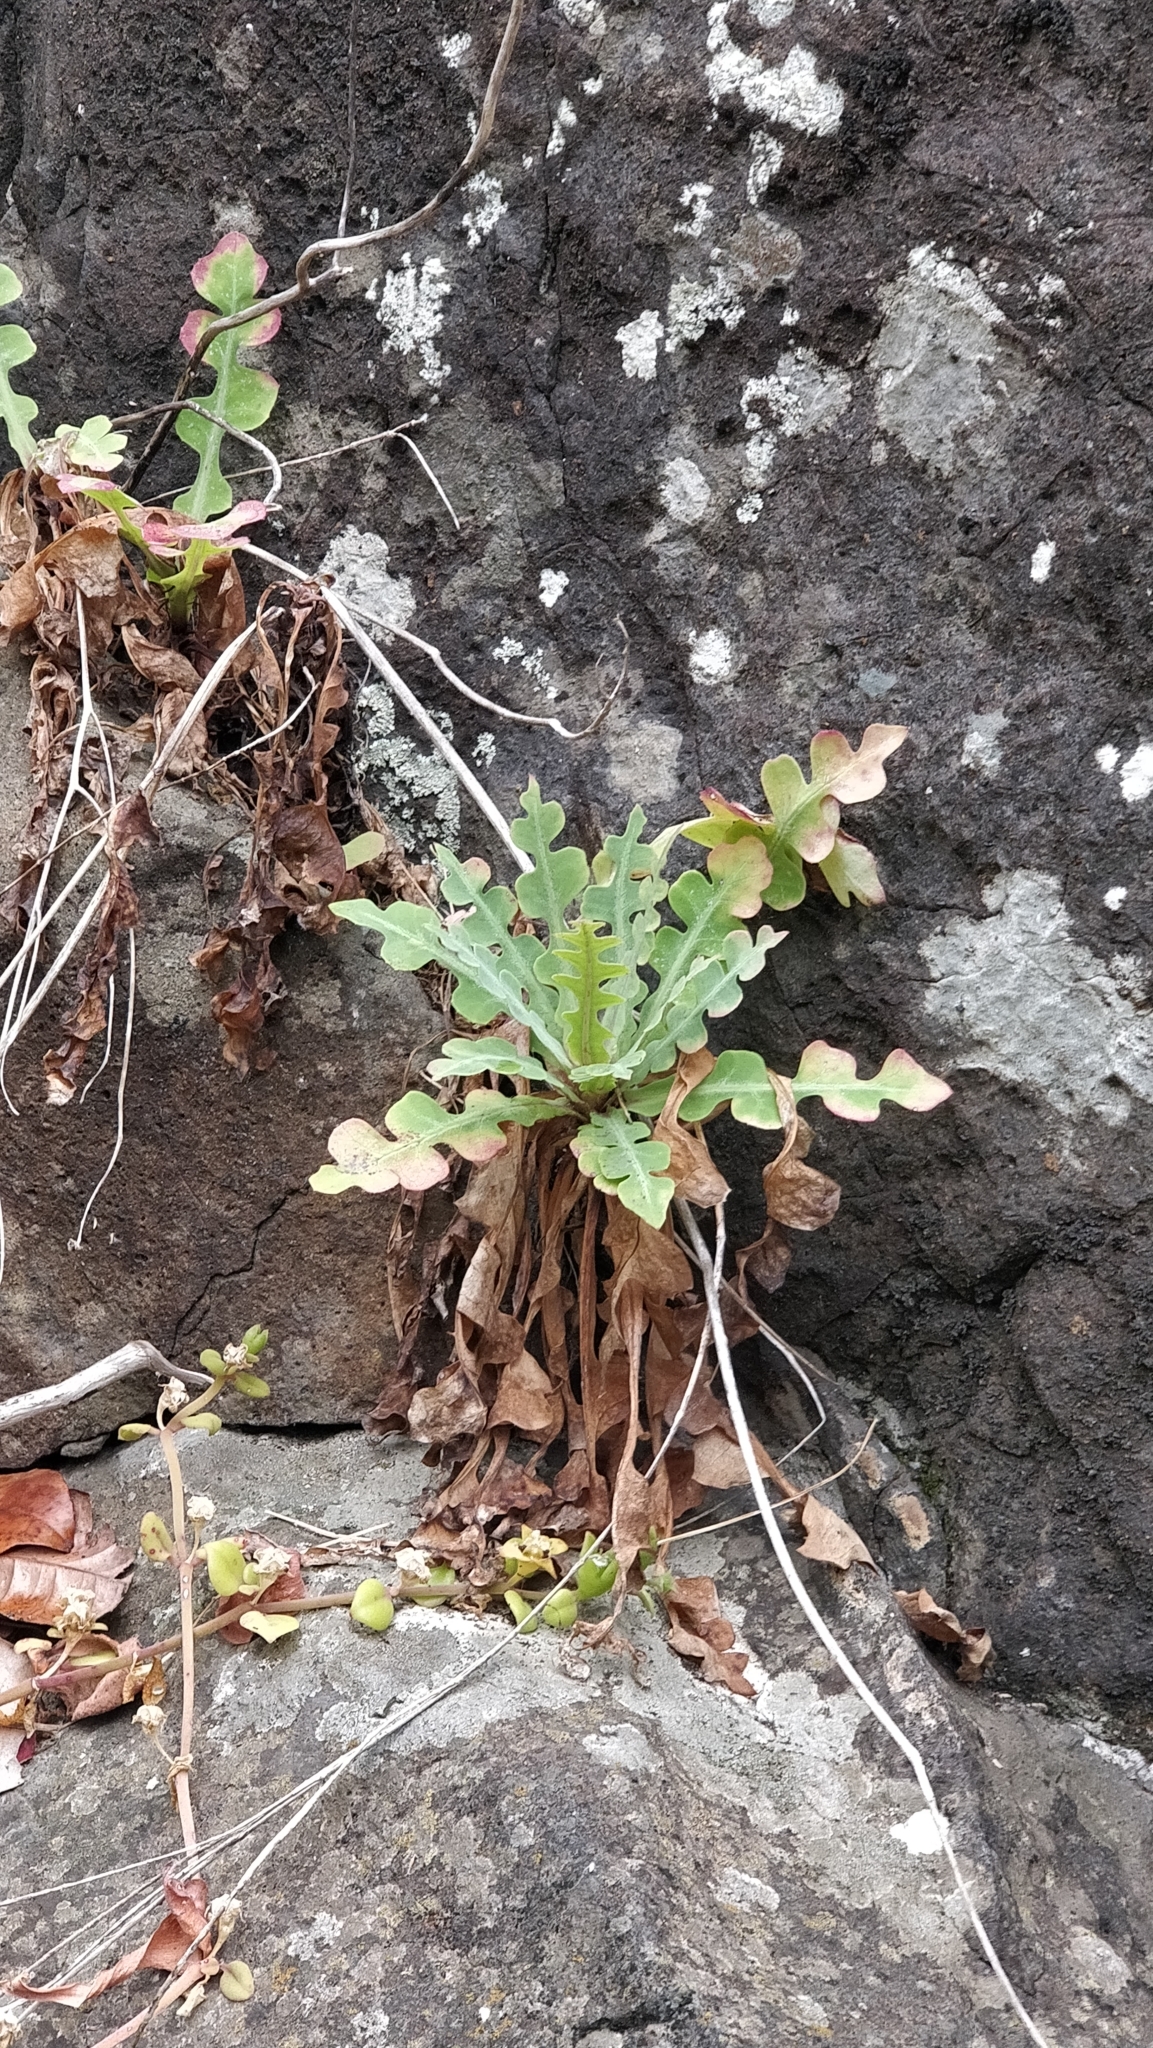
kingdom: Plantae
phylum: Tracheophyta
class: Magnoliopsida
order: Asterales
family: Asteraceae
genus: Sonchus
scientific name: Sonchus latifolius
